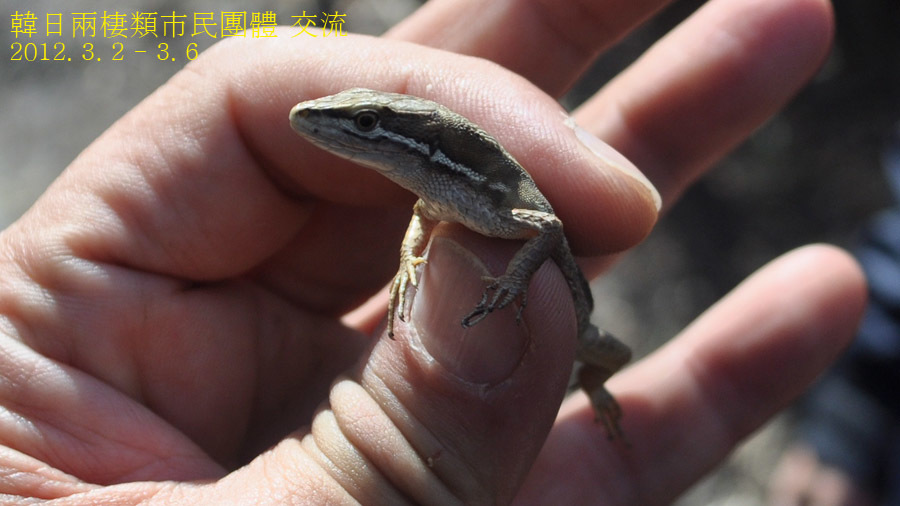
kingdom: Animalia
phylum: Chordata
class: Squamata
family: Lacertidae
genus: Takydromus
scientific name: Takydromus tachydromoides
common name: Japanese grass lizard
